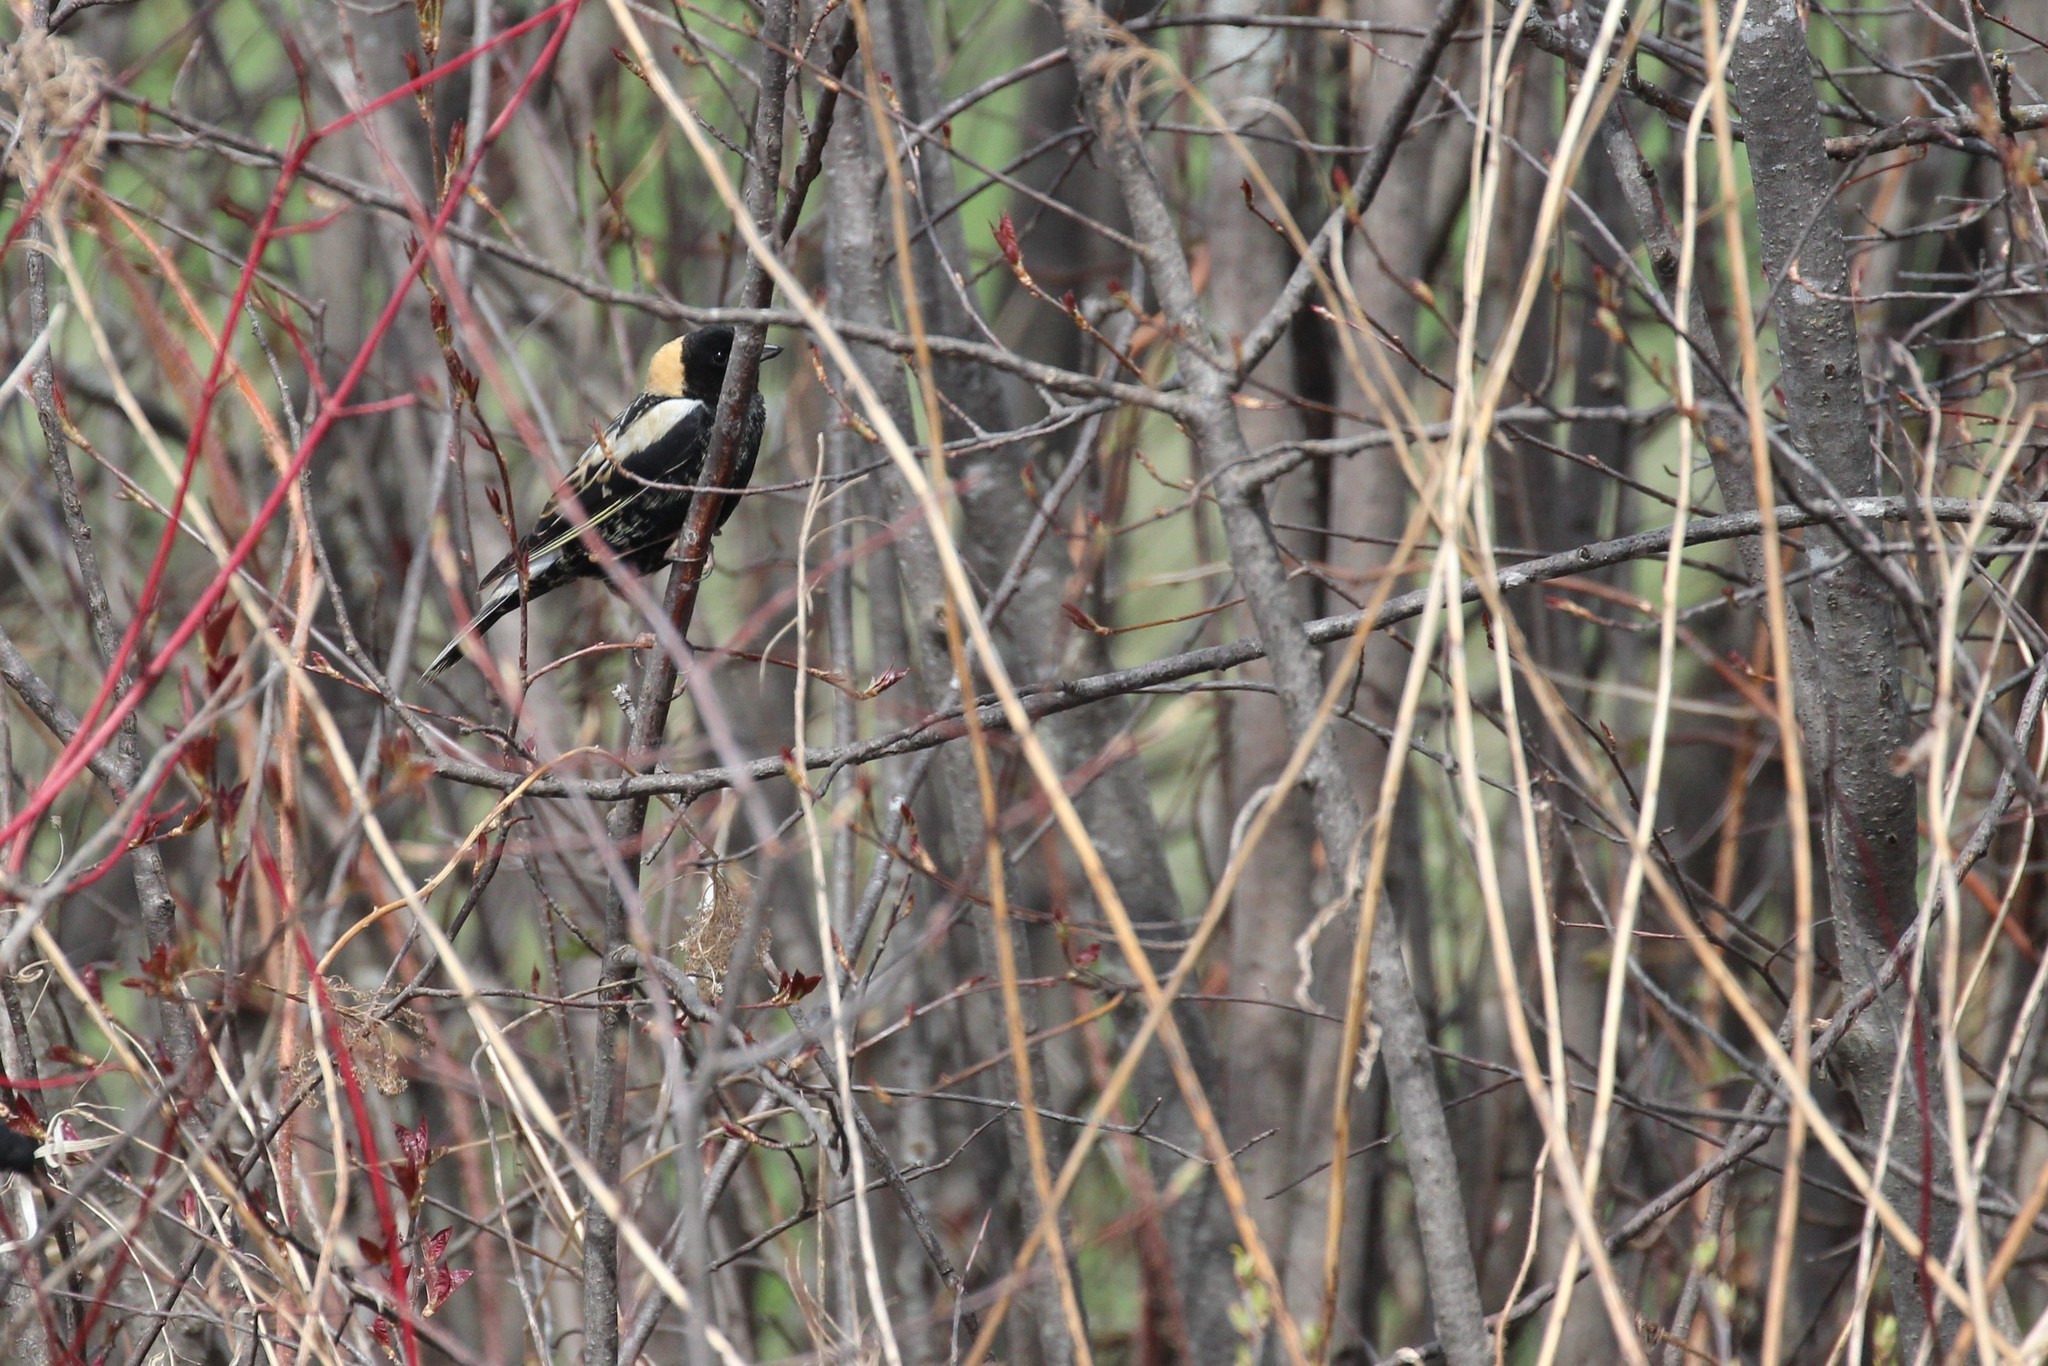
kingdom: Animalia
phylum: Chordata
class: Aves
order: Passeriformes
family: Icteridae
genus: Dolichonyx
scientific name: Dolichonyx oryzivorus
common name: Bobolink
